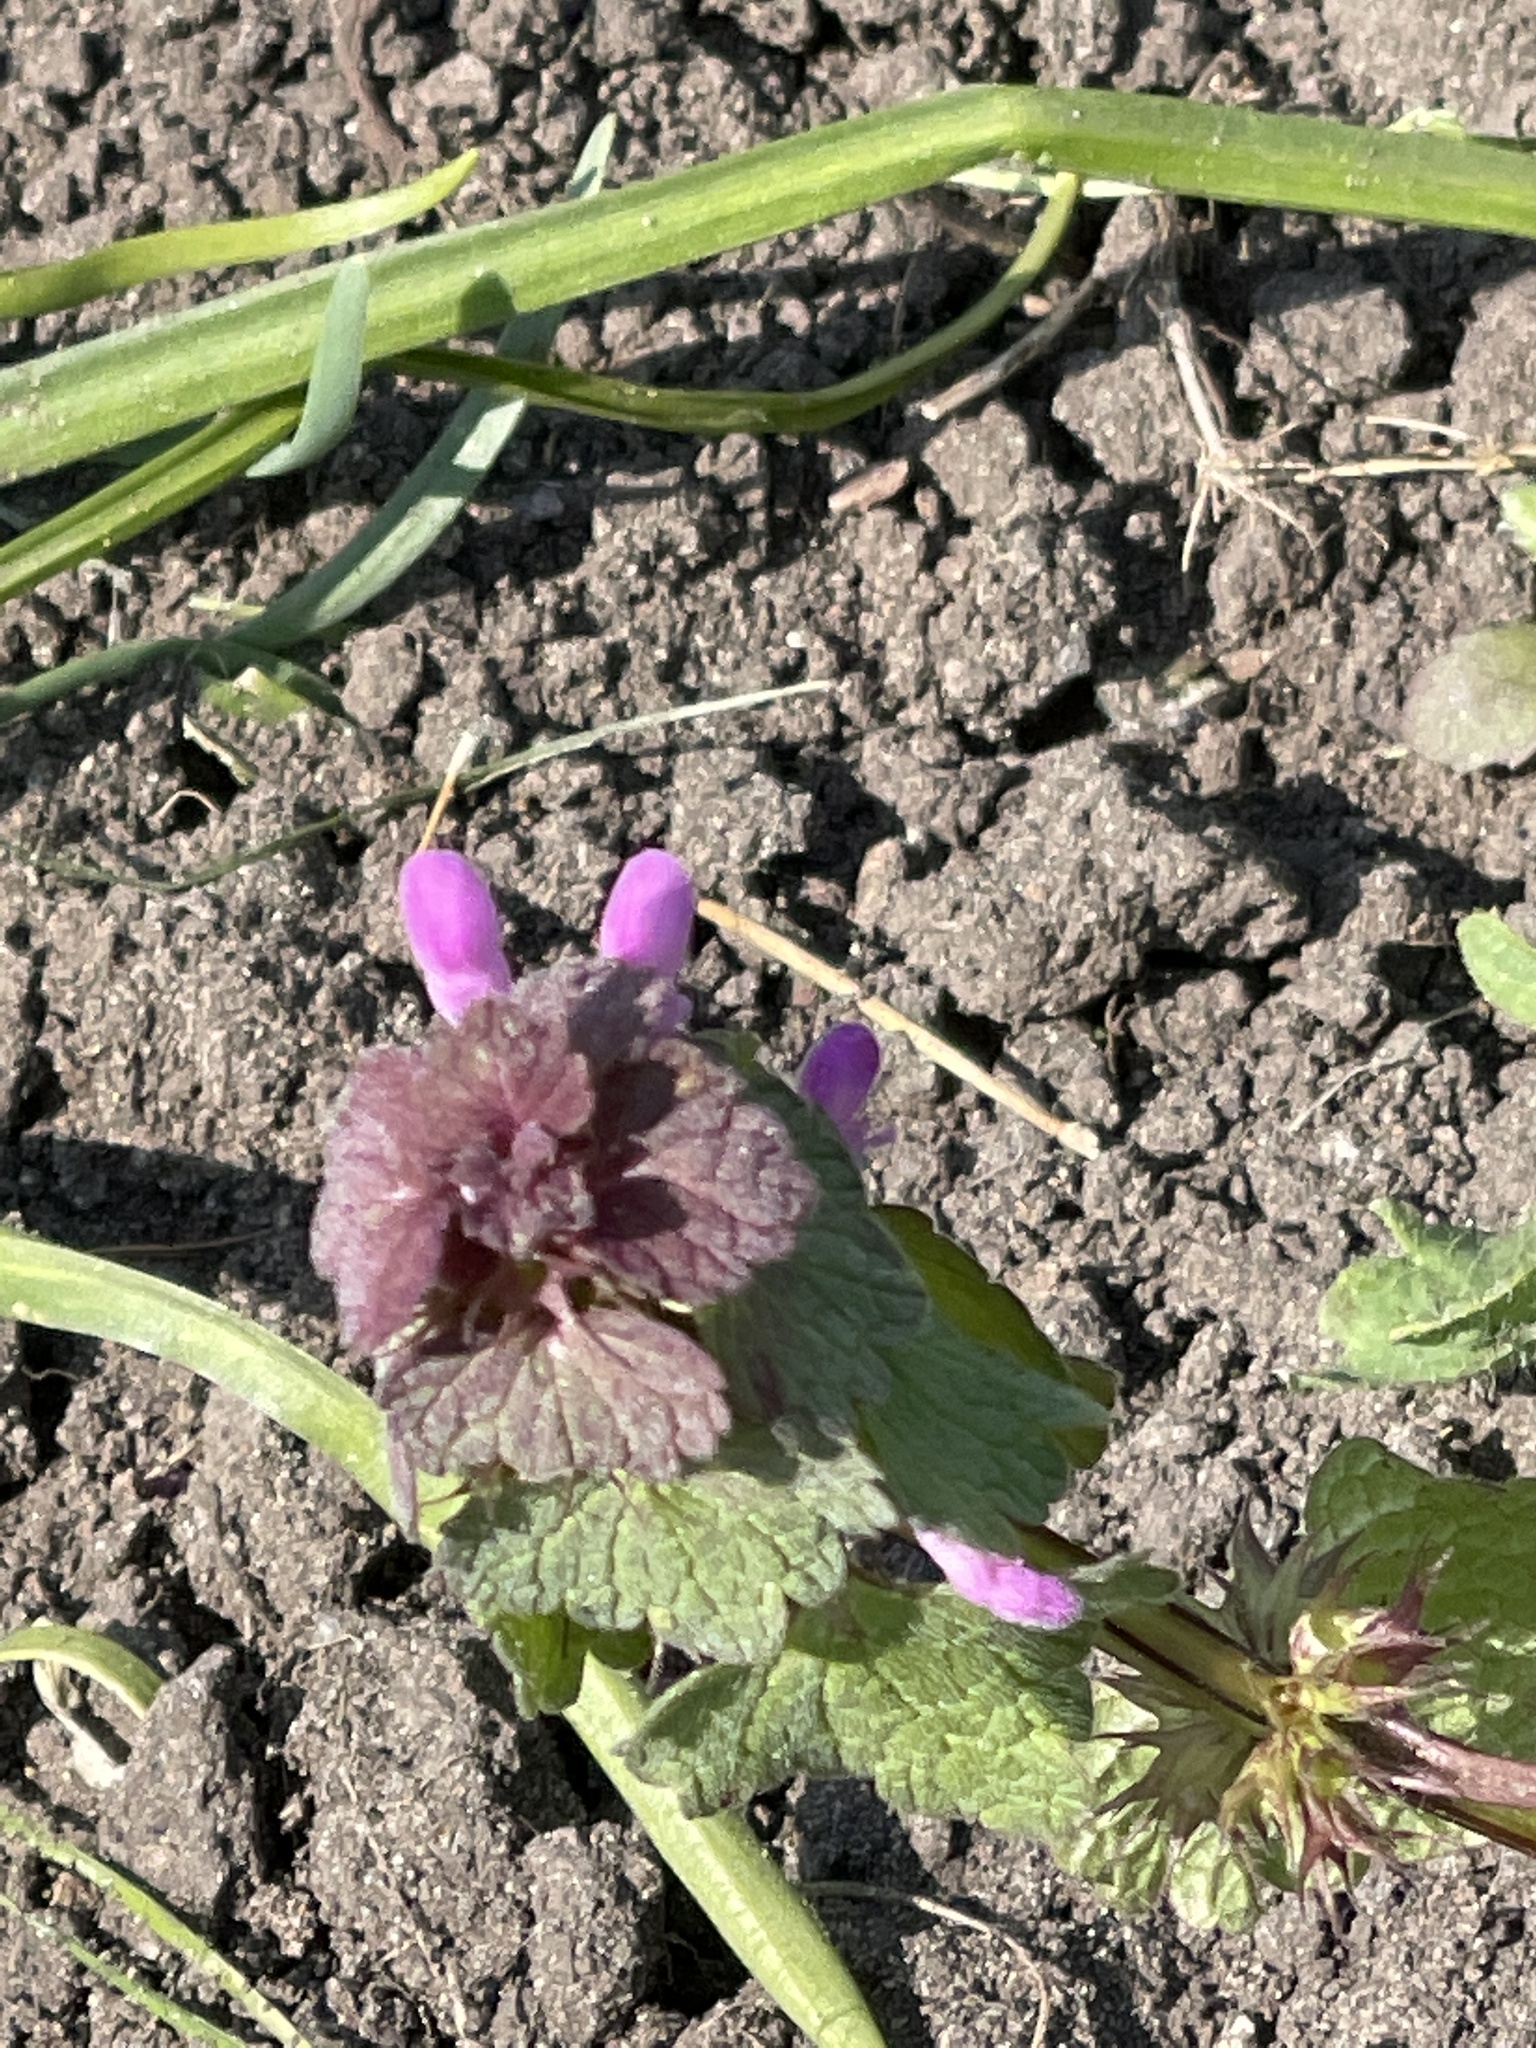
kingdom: Plantae
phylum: Tracheophyta
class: Magnoliopsida
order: Lamiales
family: Lamiaceae
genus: Lamium
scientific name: Lamium purpureum
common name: Red dead-nettle
